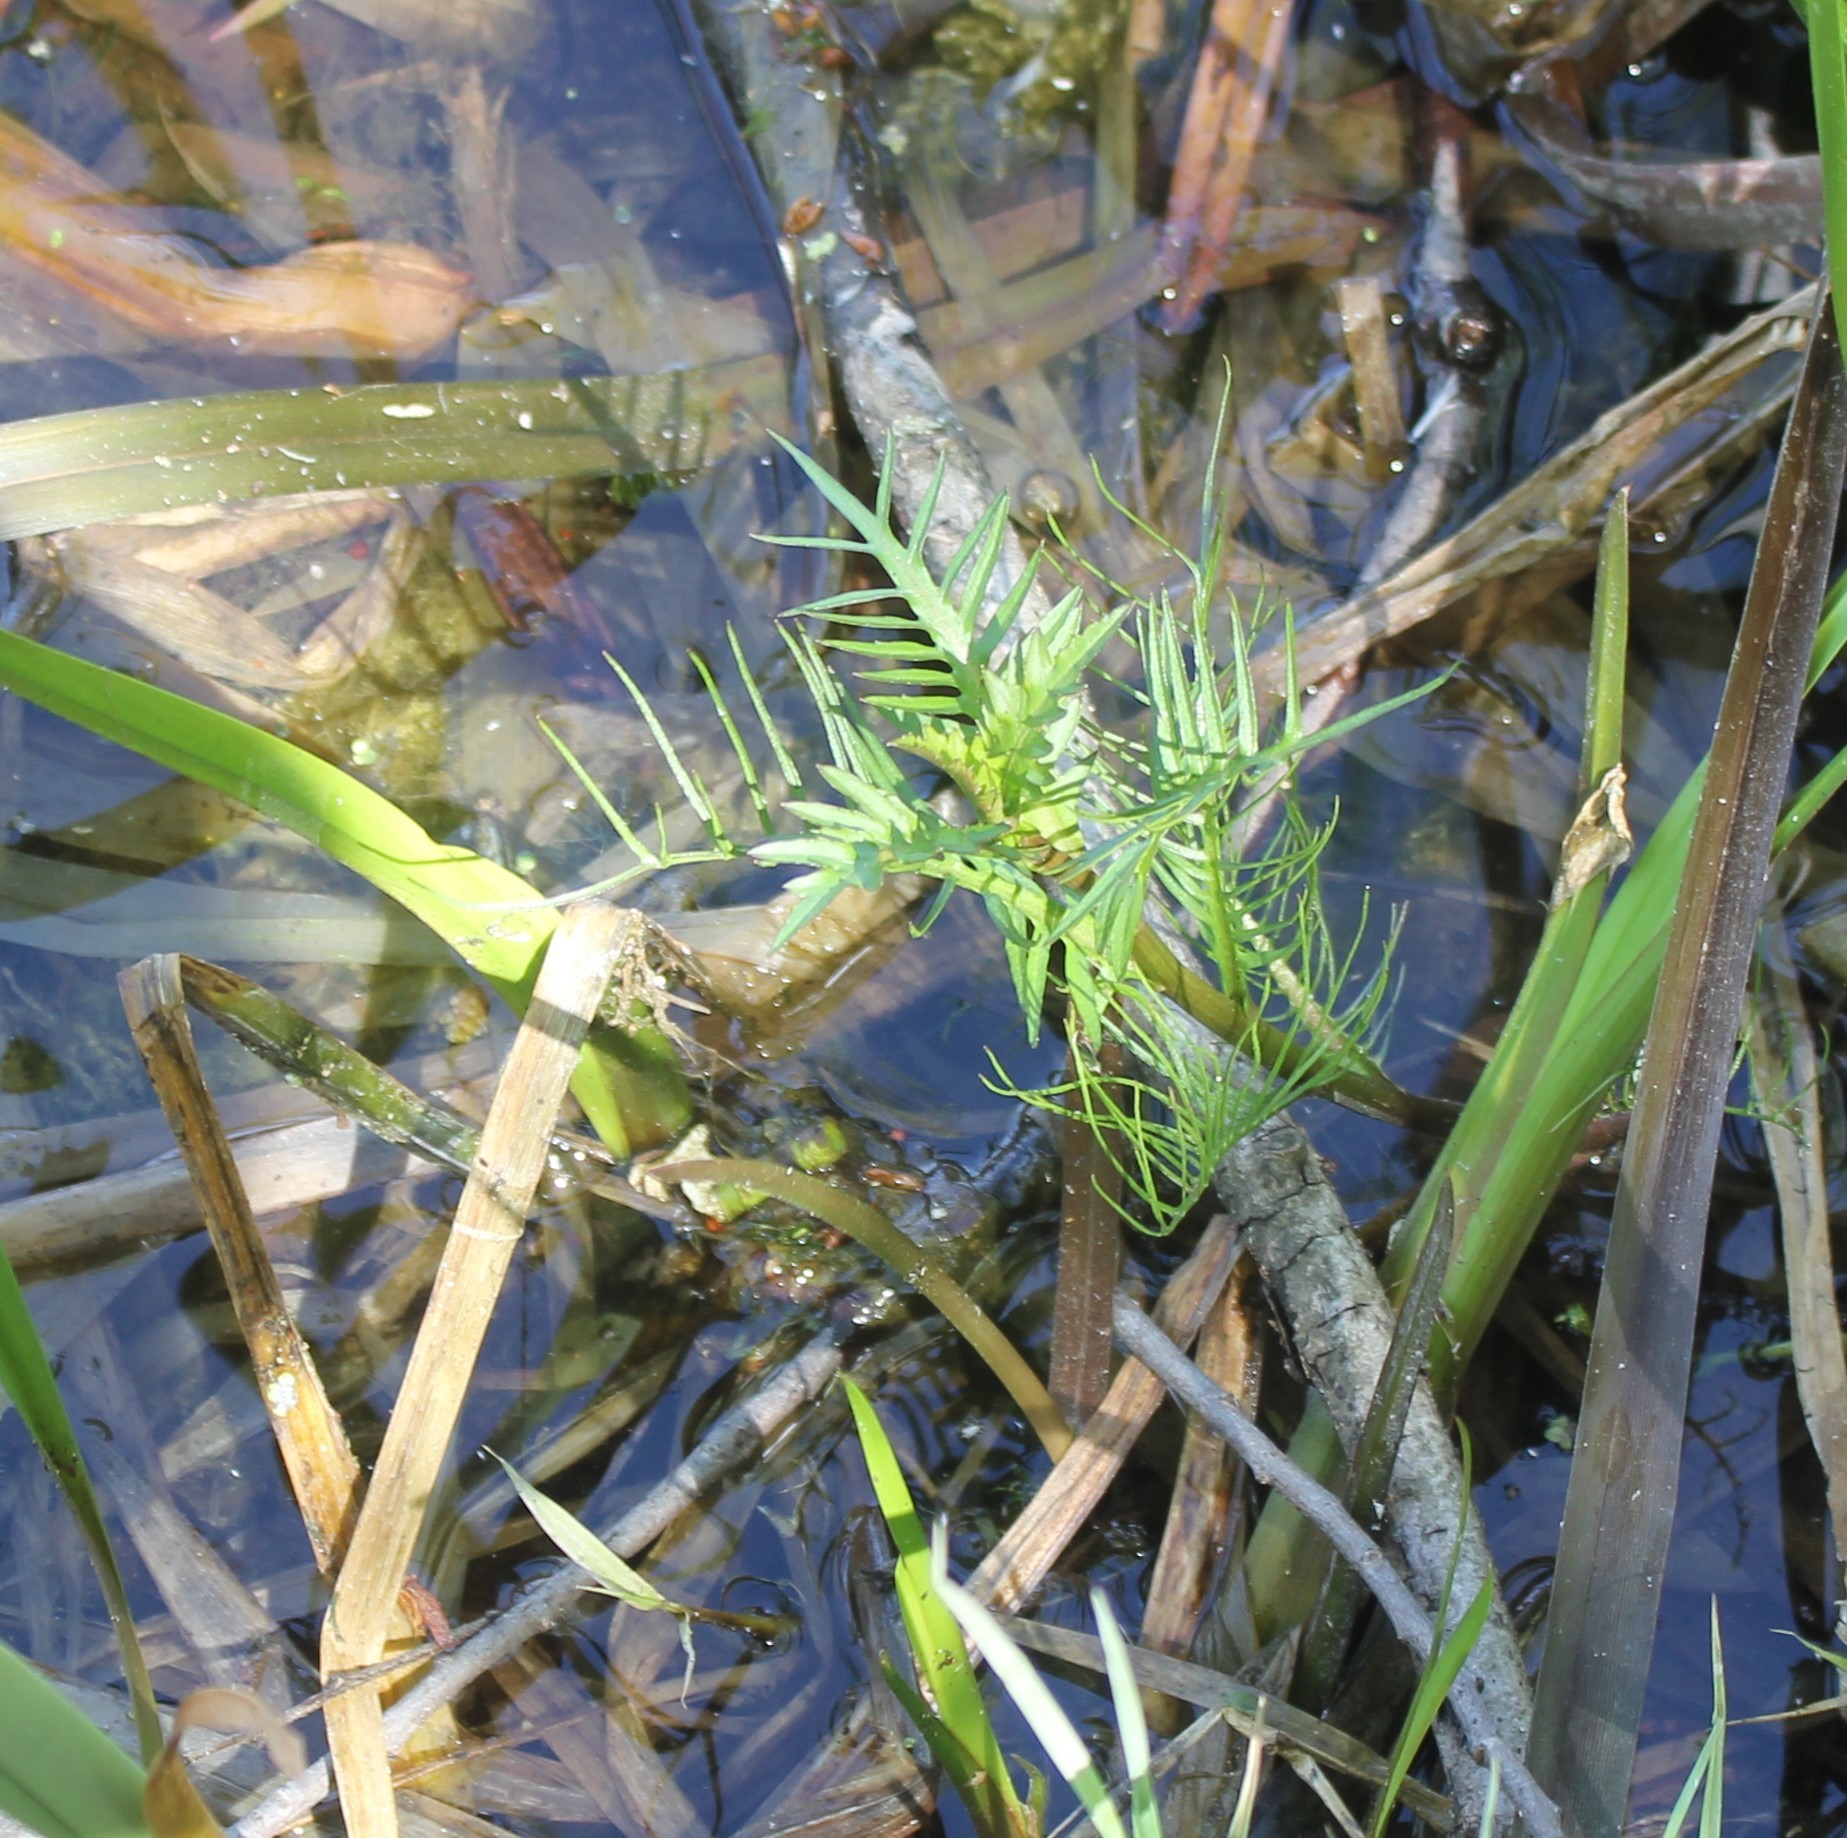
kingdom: Plantae
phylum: Tracheophyta
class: Magnoliopsida
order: Brassicales
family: Brassicaceae
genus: Rorippa
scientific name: Rorippa amphibia
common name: Great yellow-cress
